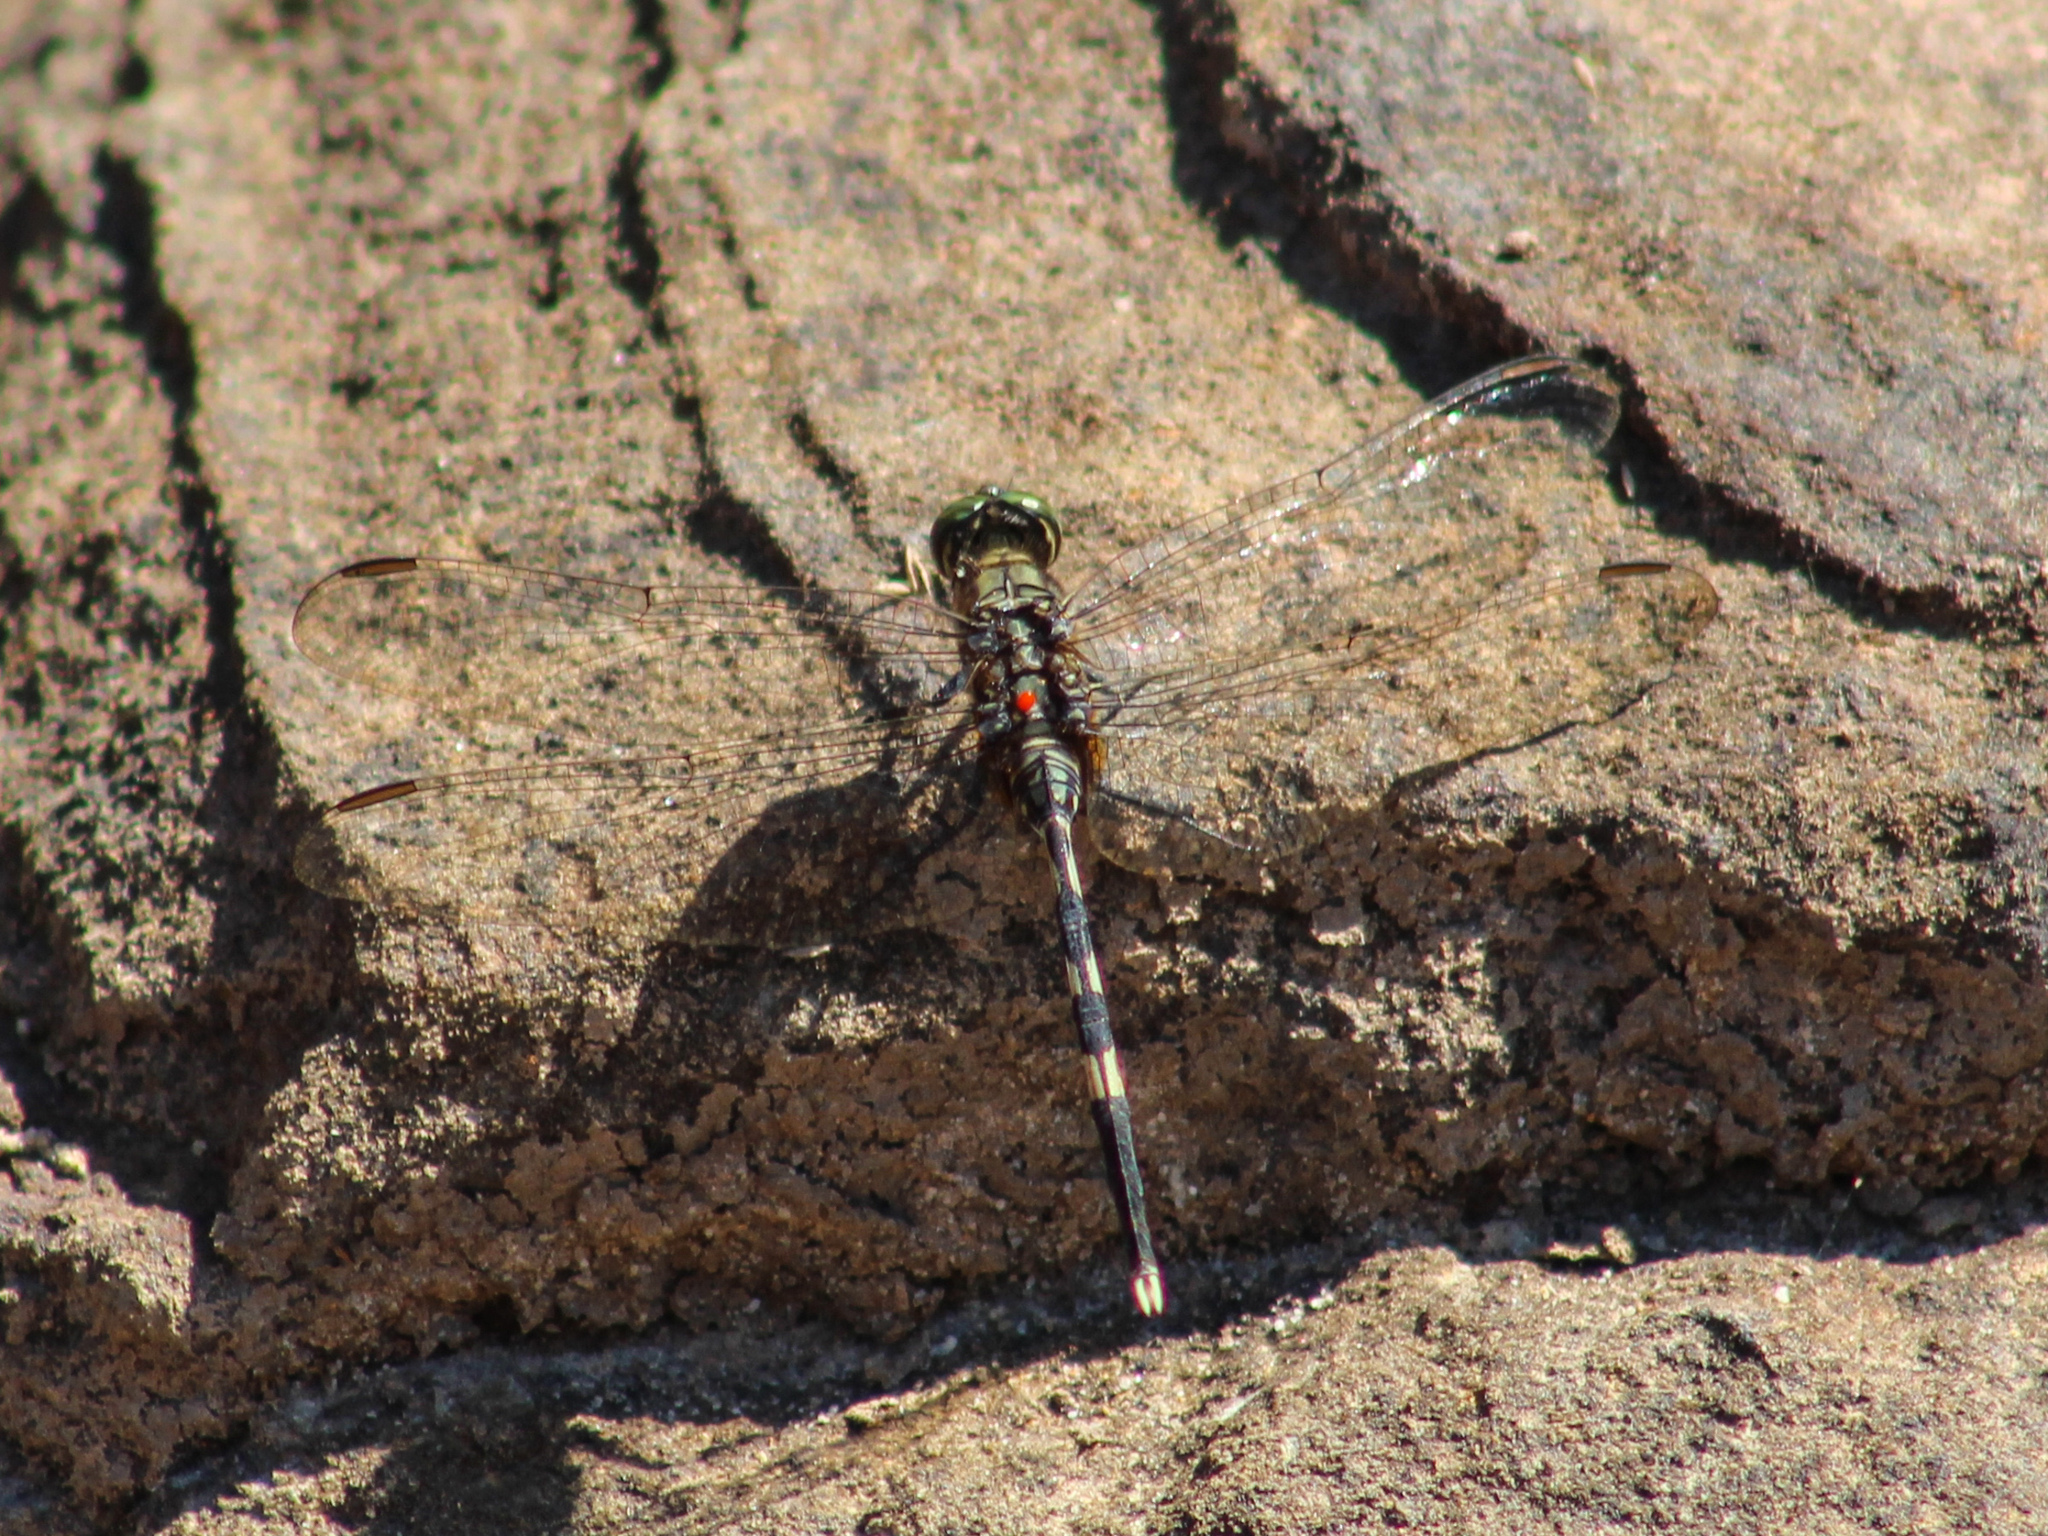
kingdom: Animalia
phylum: Arthropoda
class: Insecta
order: Odonata
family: Libellulidae
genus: Orthetrum
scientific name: Orthetrum sabina
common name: Slender skimmer
